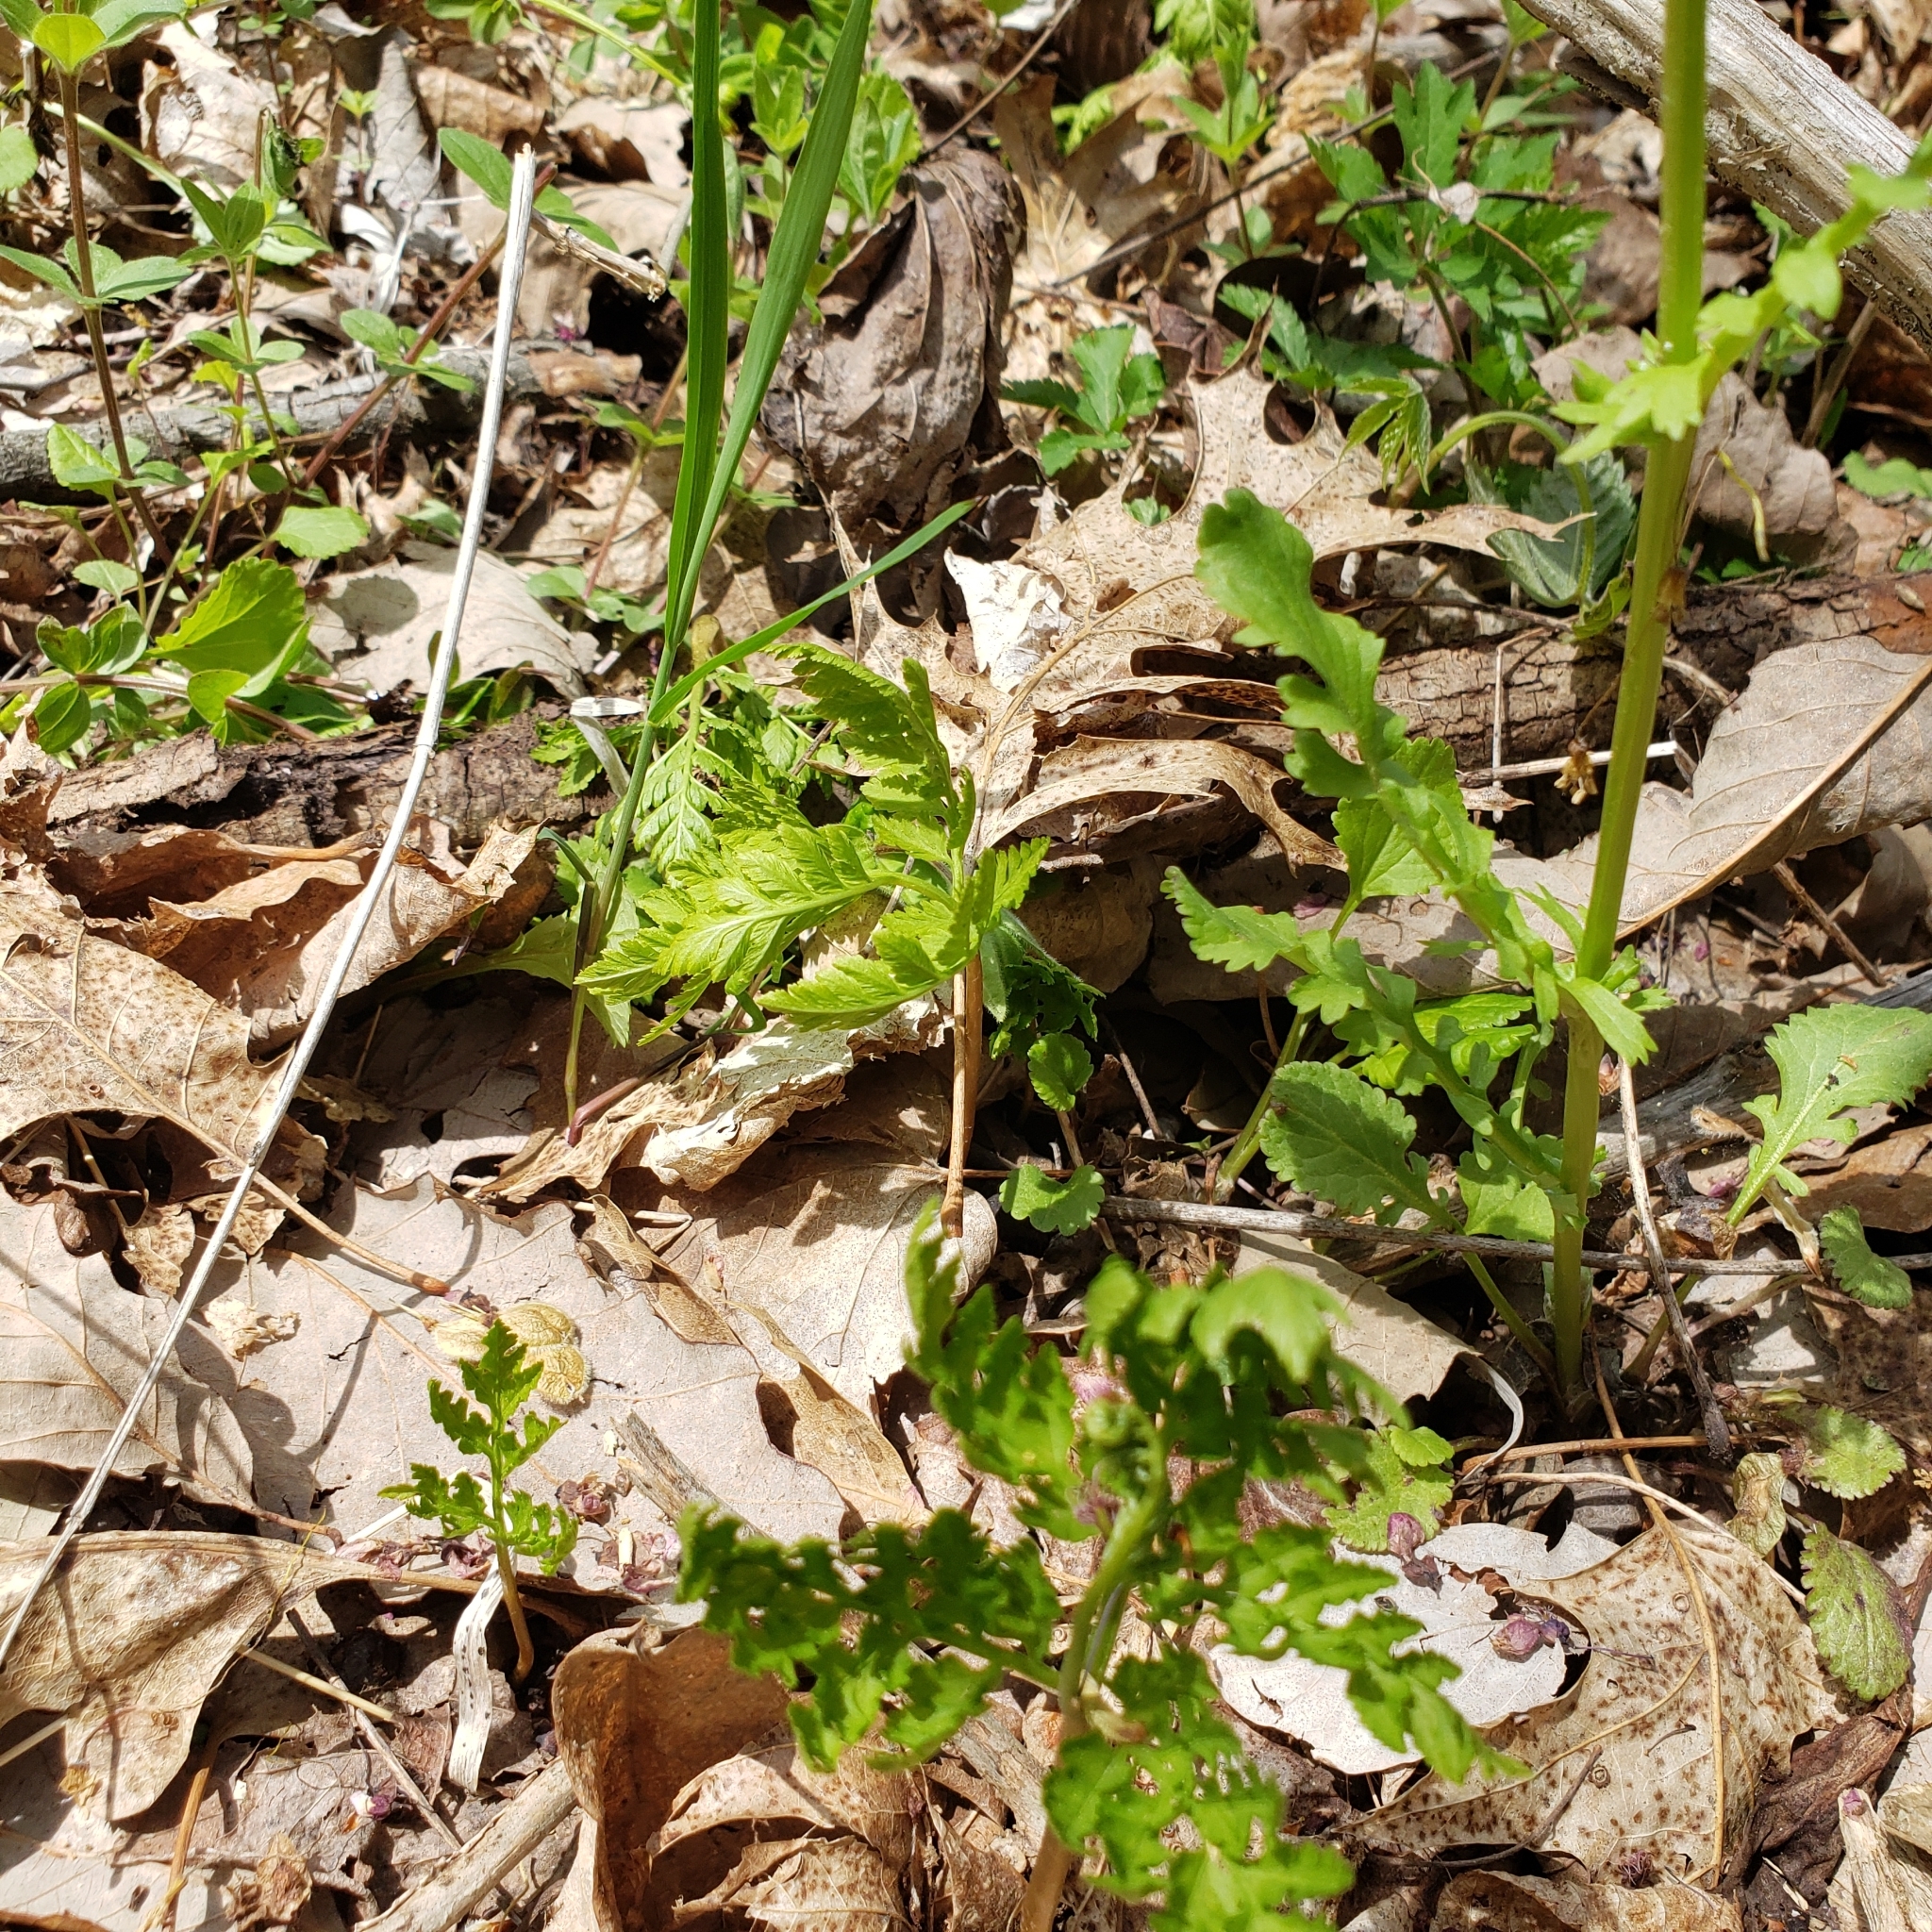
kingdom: Plantae
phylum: Tracheophyta
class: Polypodiopsida
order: Ophioglossales
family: Ophioglossaceae
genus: Botrypus
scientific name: Botrypus virginianus
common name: Common grapefern
